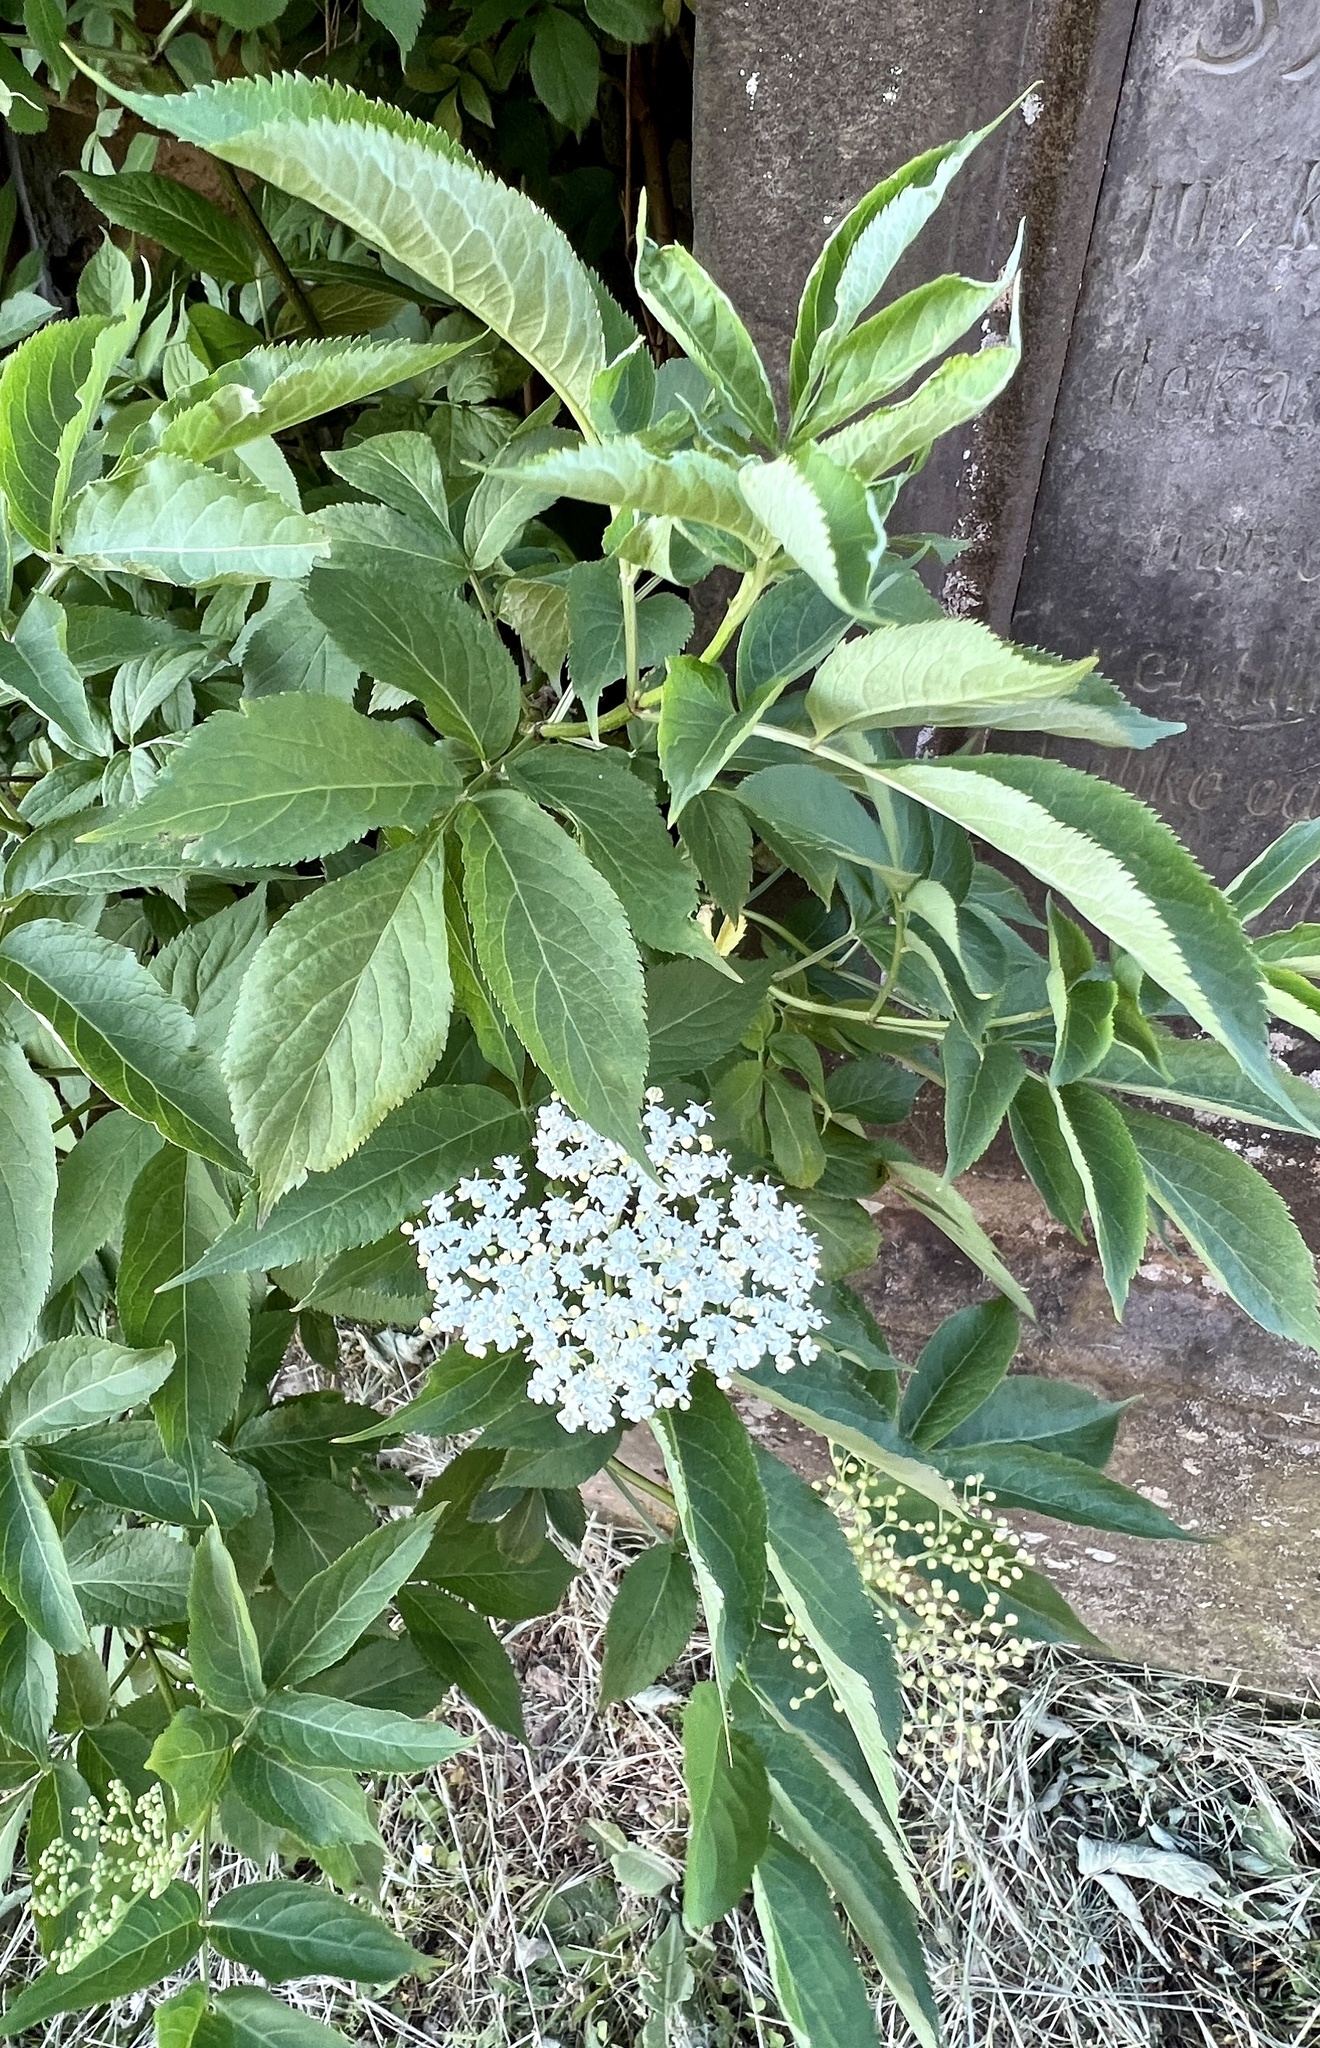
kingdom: Plantae
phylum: Tracheophyta
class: Magnoliopsida
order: Dipsacales
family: Viburnaceae
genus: Sambucus
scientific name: Sambucus nigra
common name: Elder
